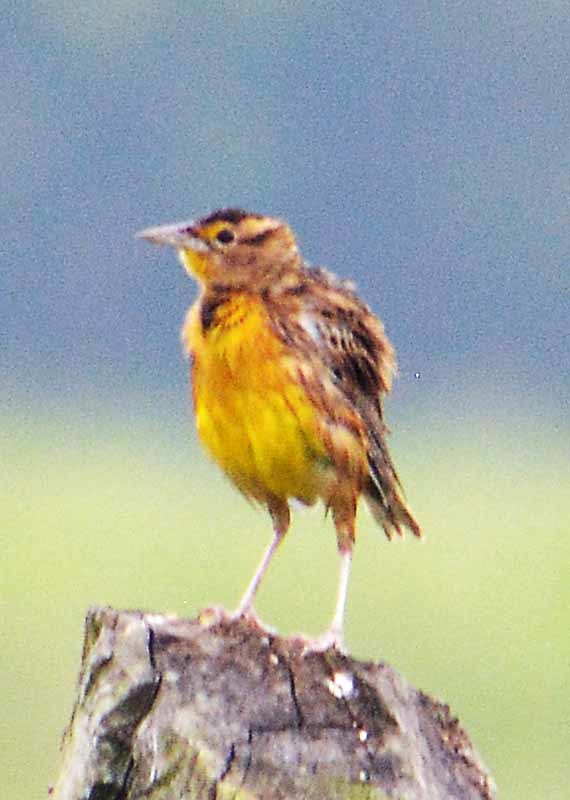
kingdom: Animalia
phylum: Chordata
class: Aves
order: Passeriformes
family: Icteridae
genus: Sturnella
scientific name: Sturnella magna
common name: Eastern meadowlark
